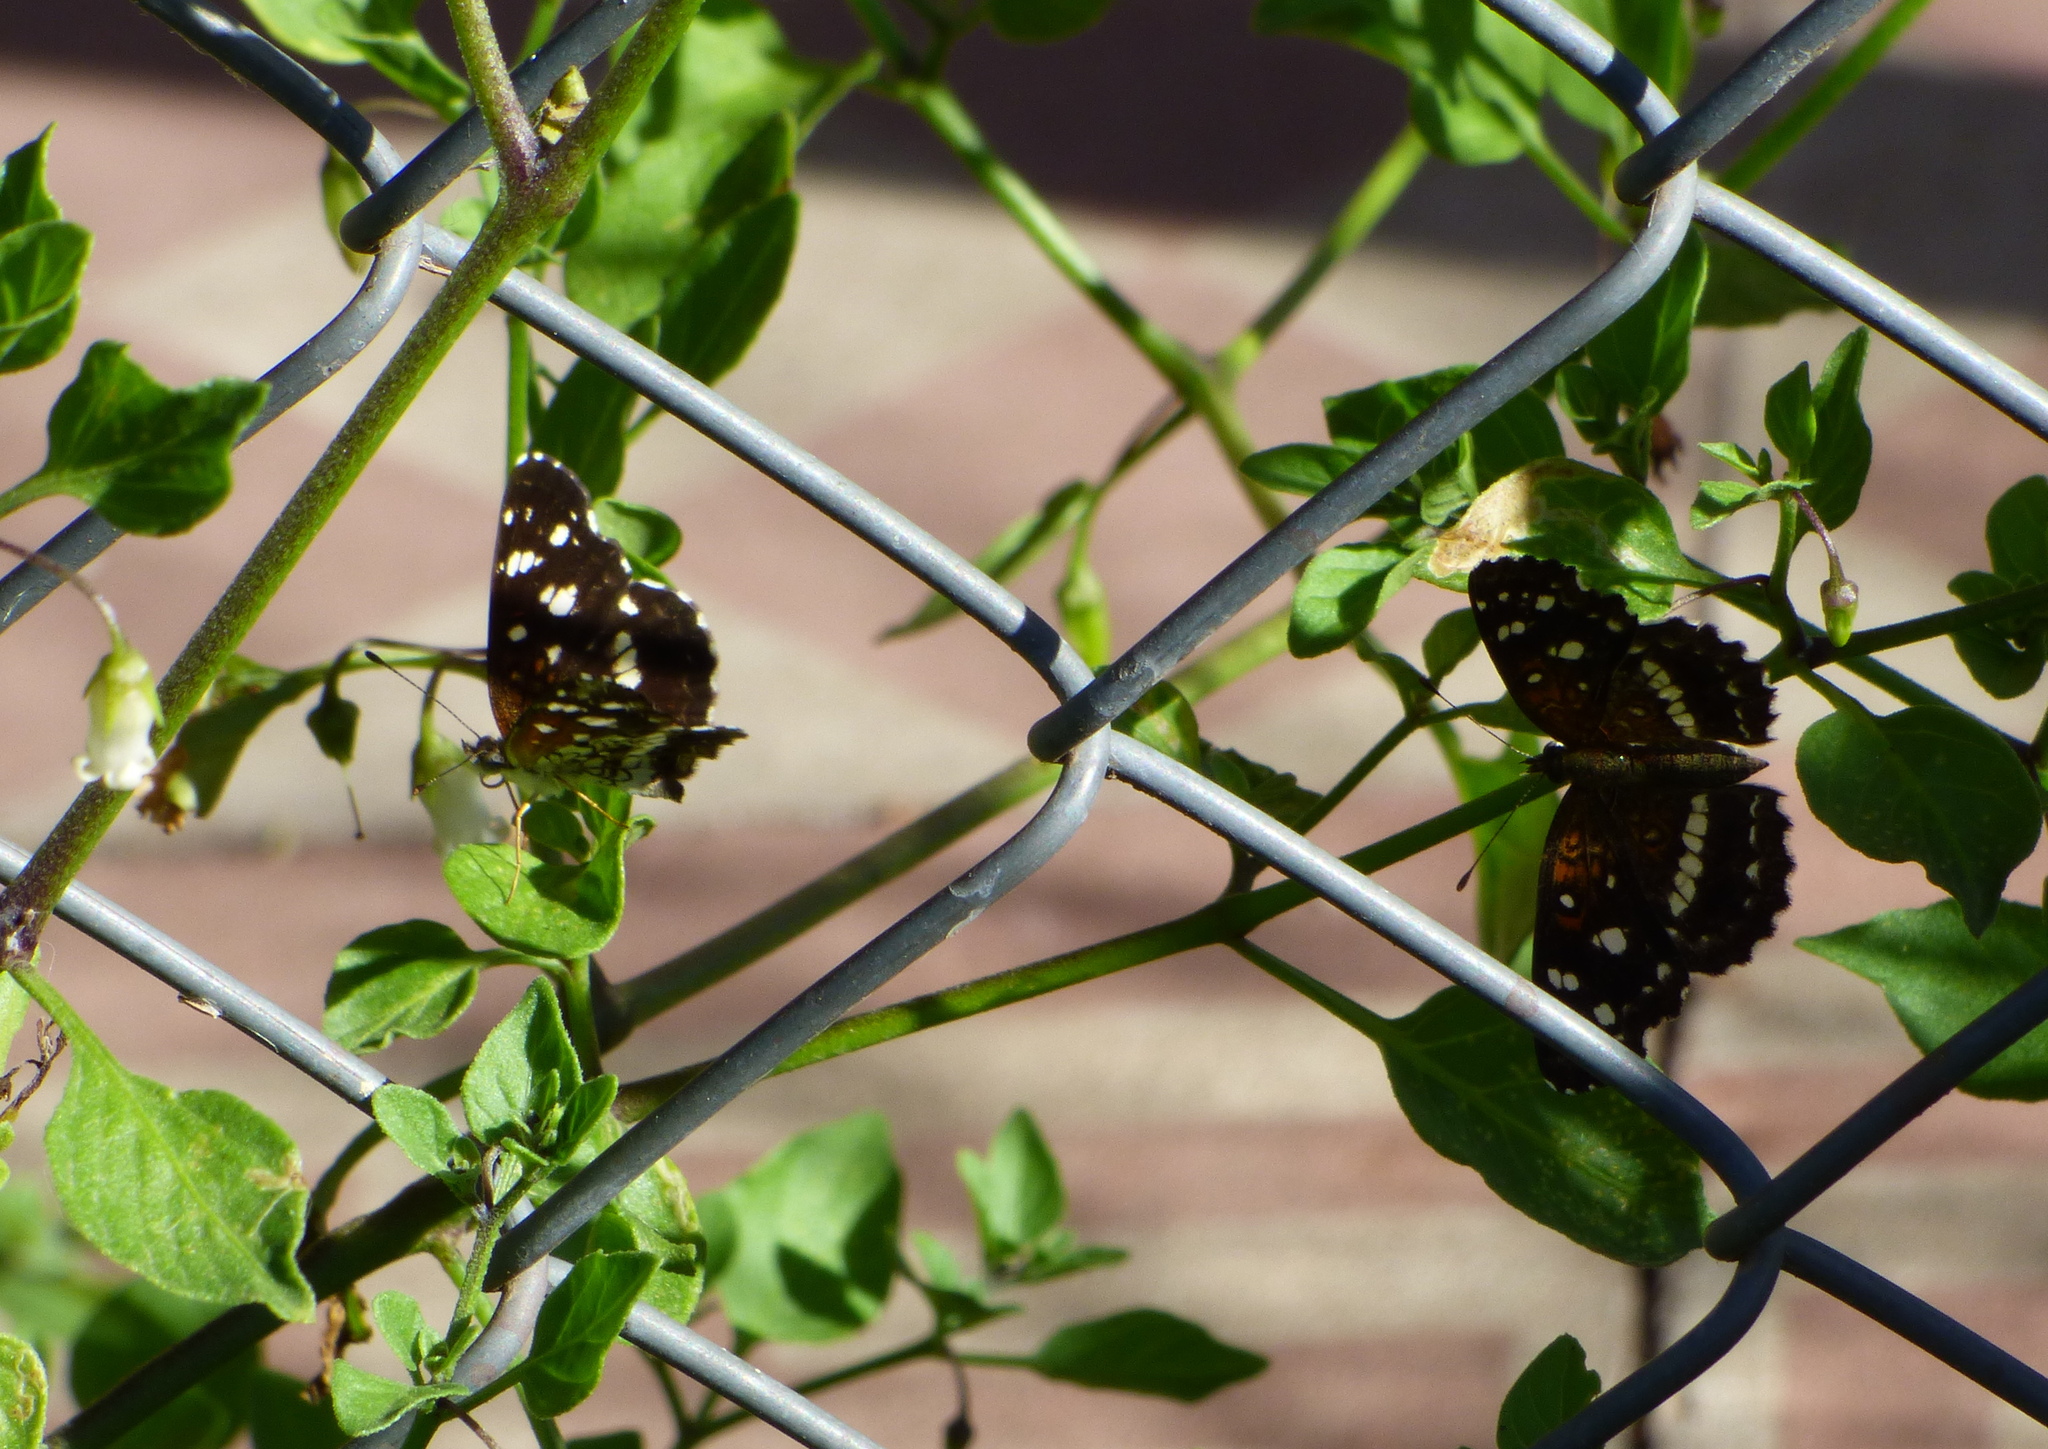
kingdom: Animalia
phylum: Arthropoda
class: Insecta
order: Lepidoptera
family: Nymphalidae
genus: Ortilia
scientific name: Ortilia ithra
